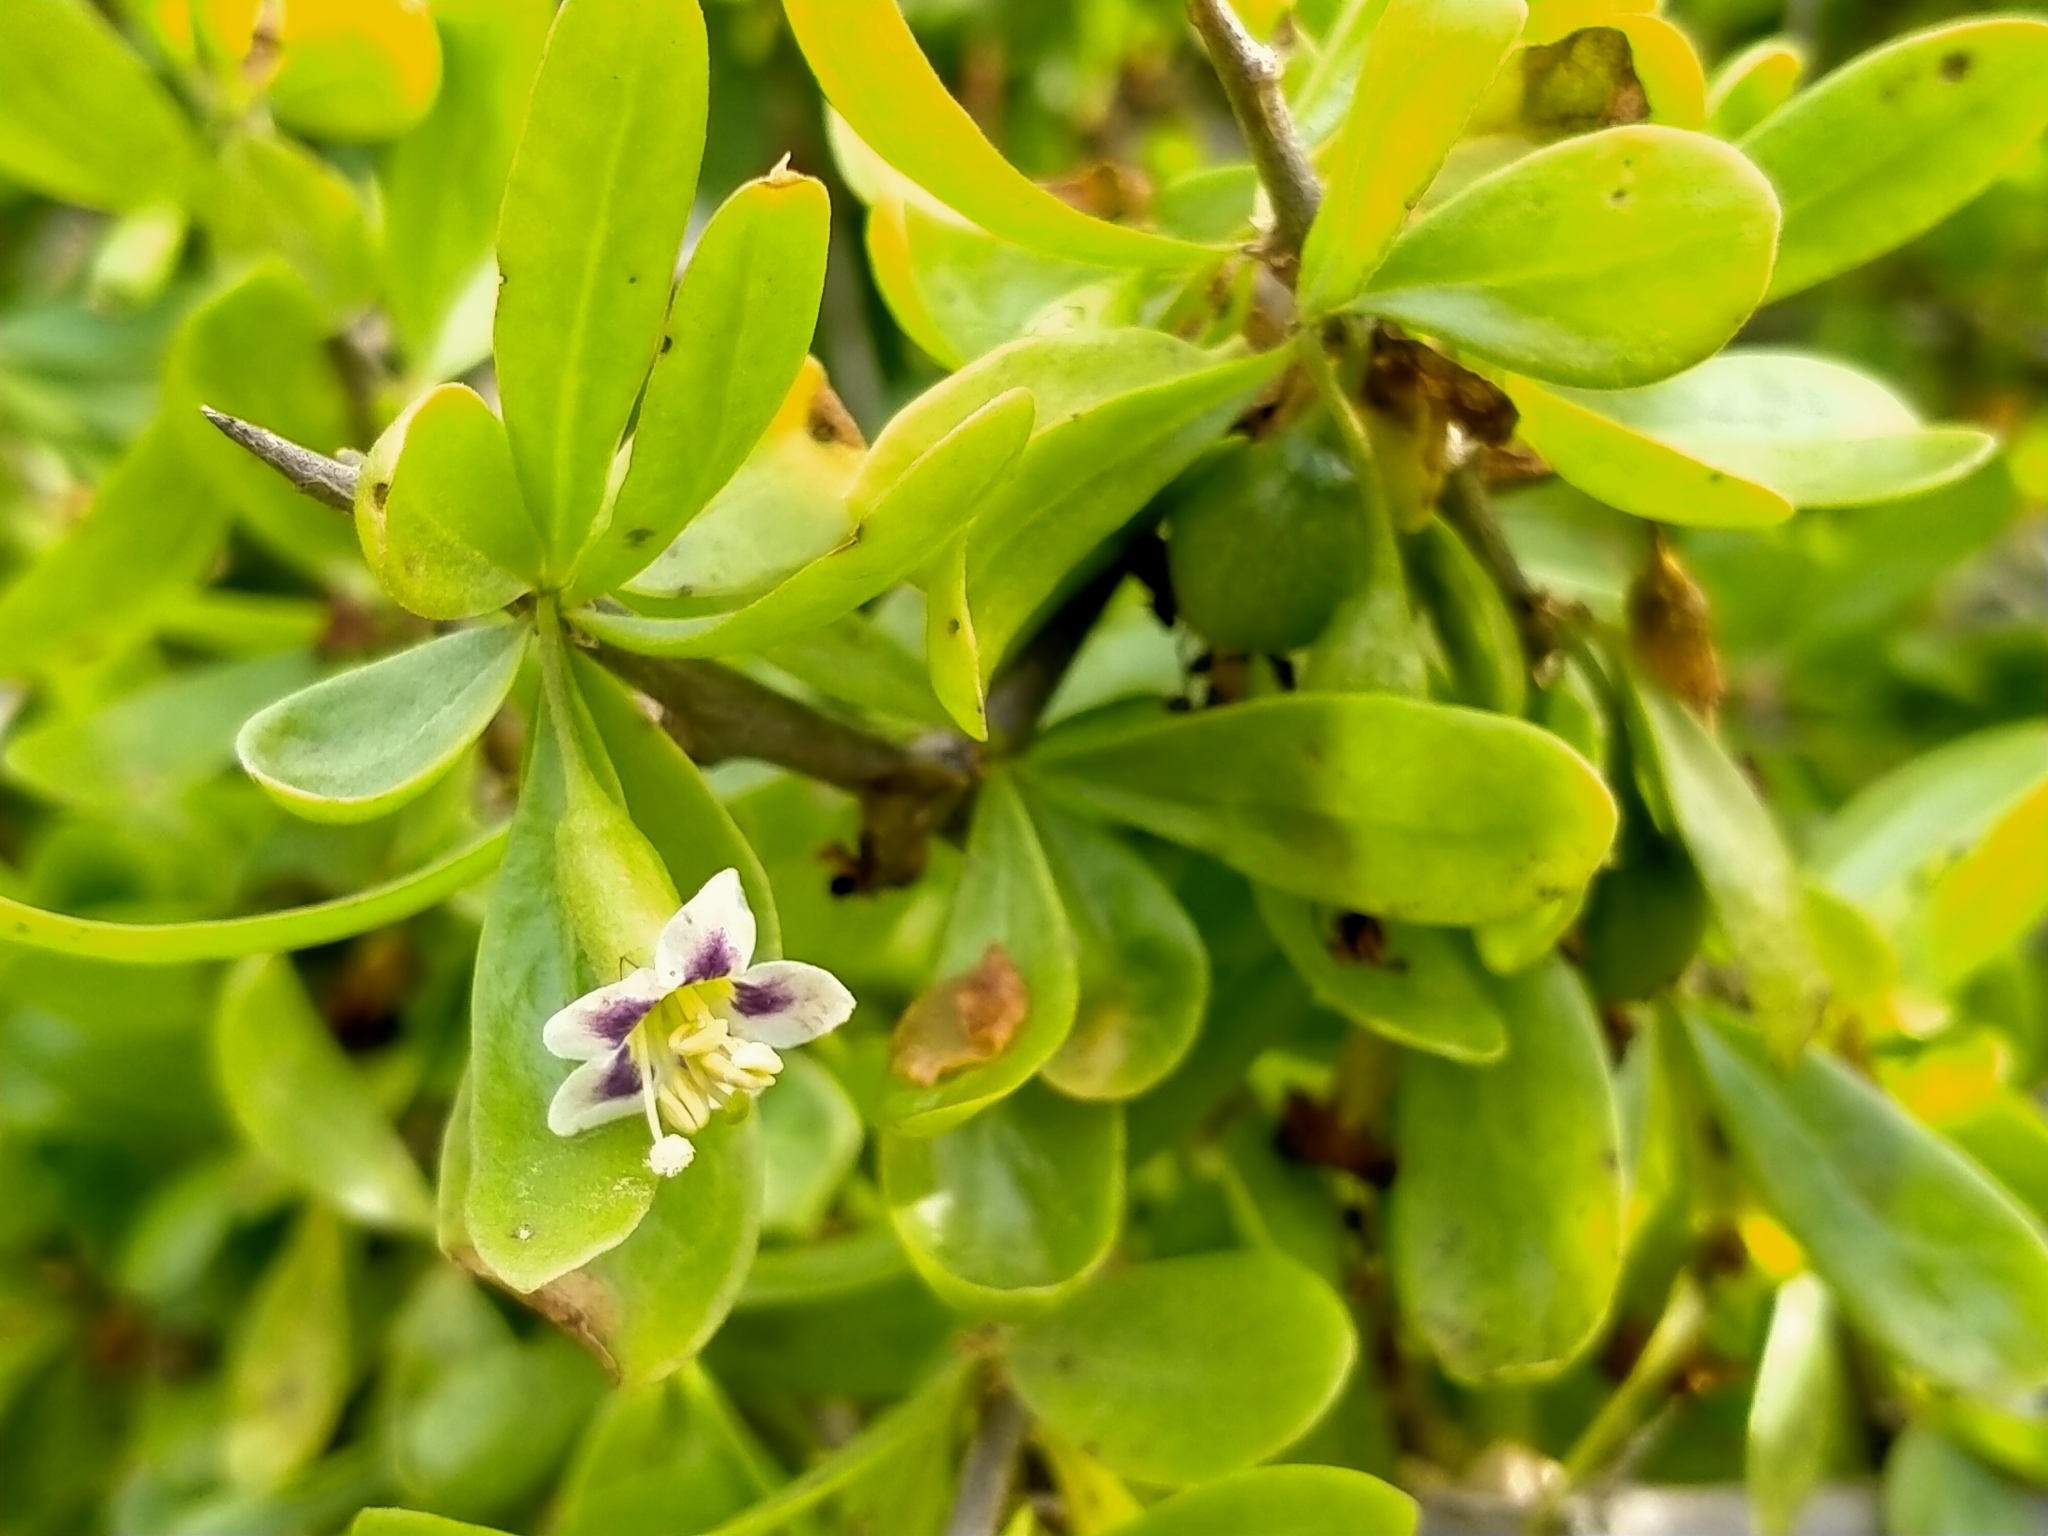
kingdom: Plantae
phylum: Tracheophyta
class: Magnoliopsida
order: Solanales
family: Solanaceae
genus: Lycium
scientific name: Lycium ferocissimum
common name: African boxthorn
